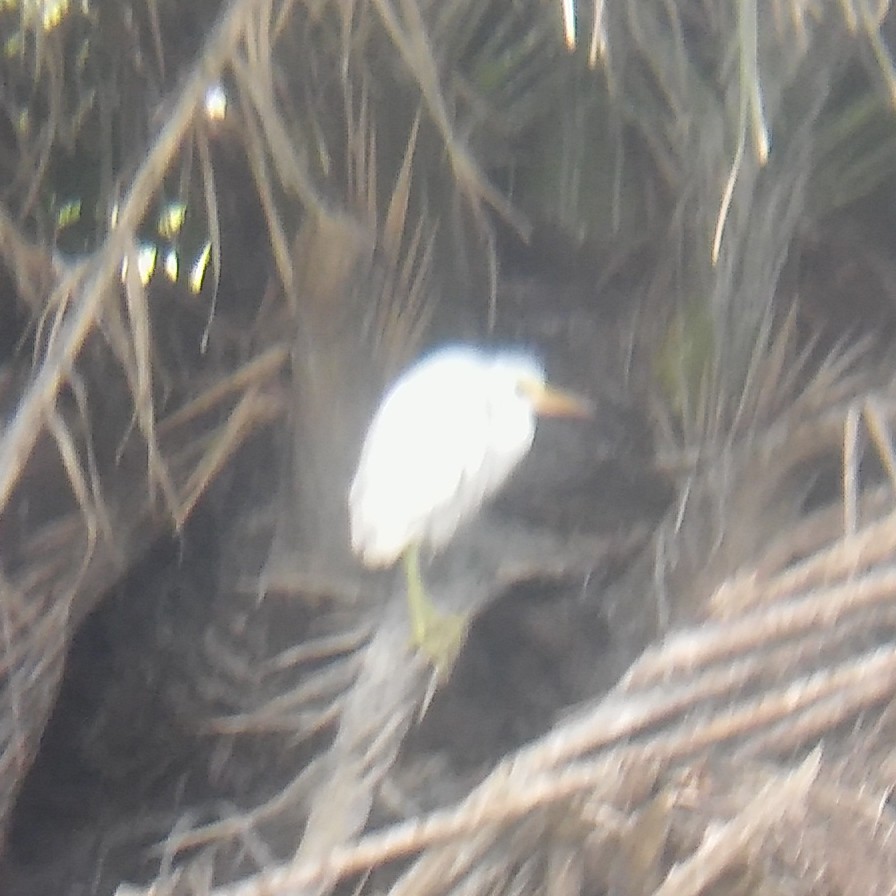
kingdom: Animalia
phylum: Chordata
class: Aves
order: Pelecaniformes
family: Ardeidae
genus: Ardea
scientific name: Ardea alba
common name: Great egret
